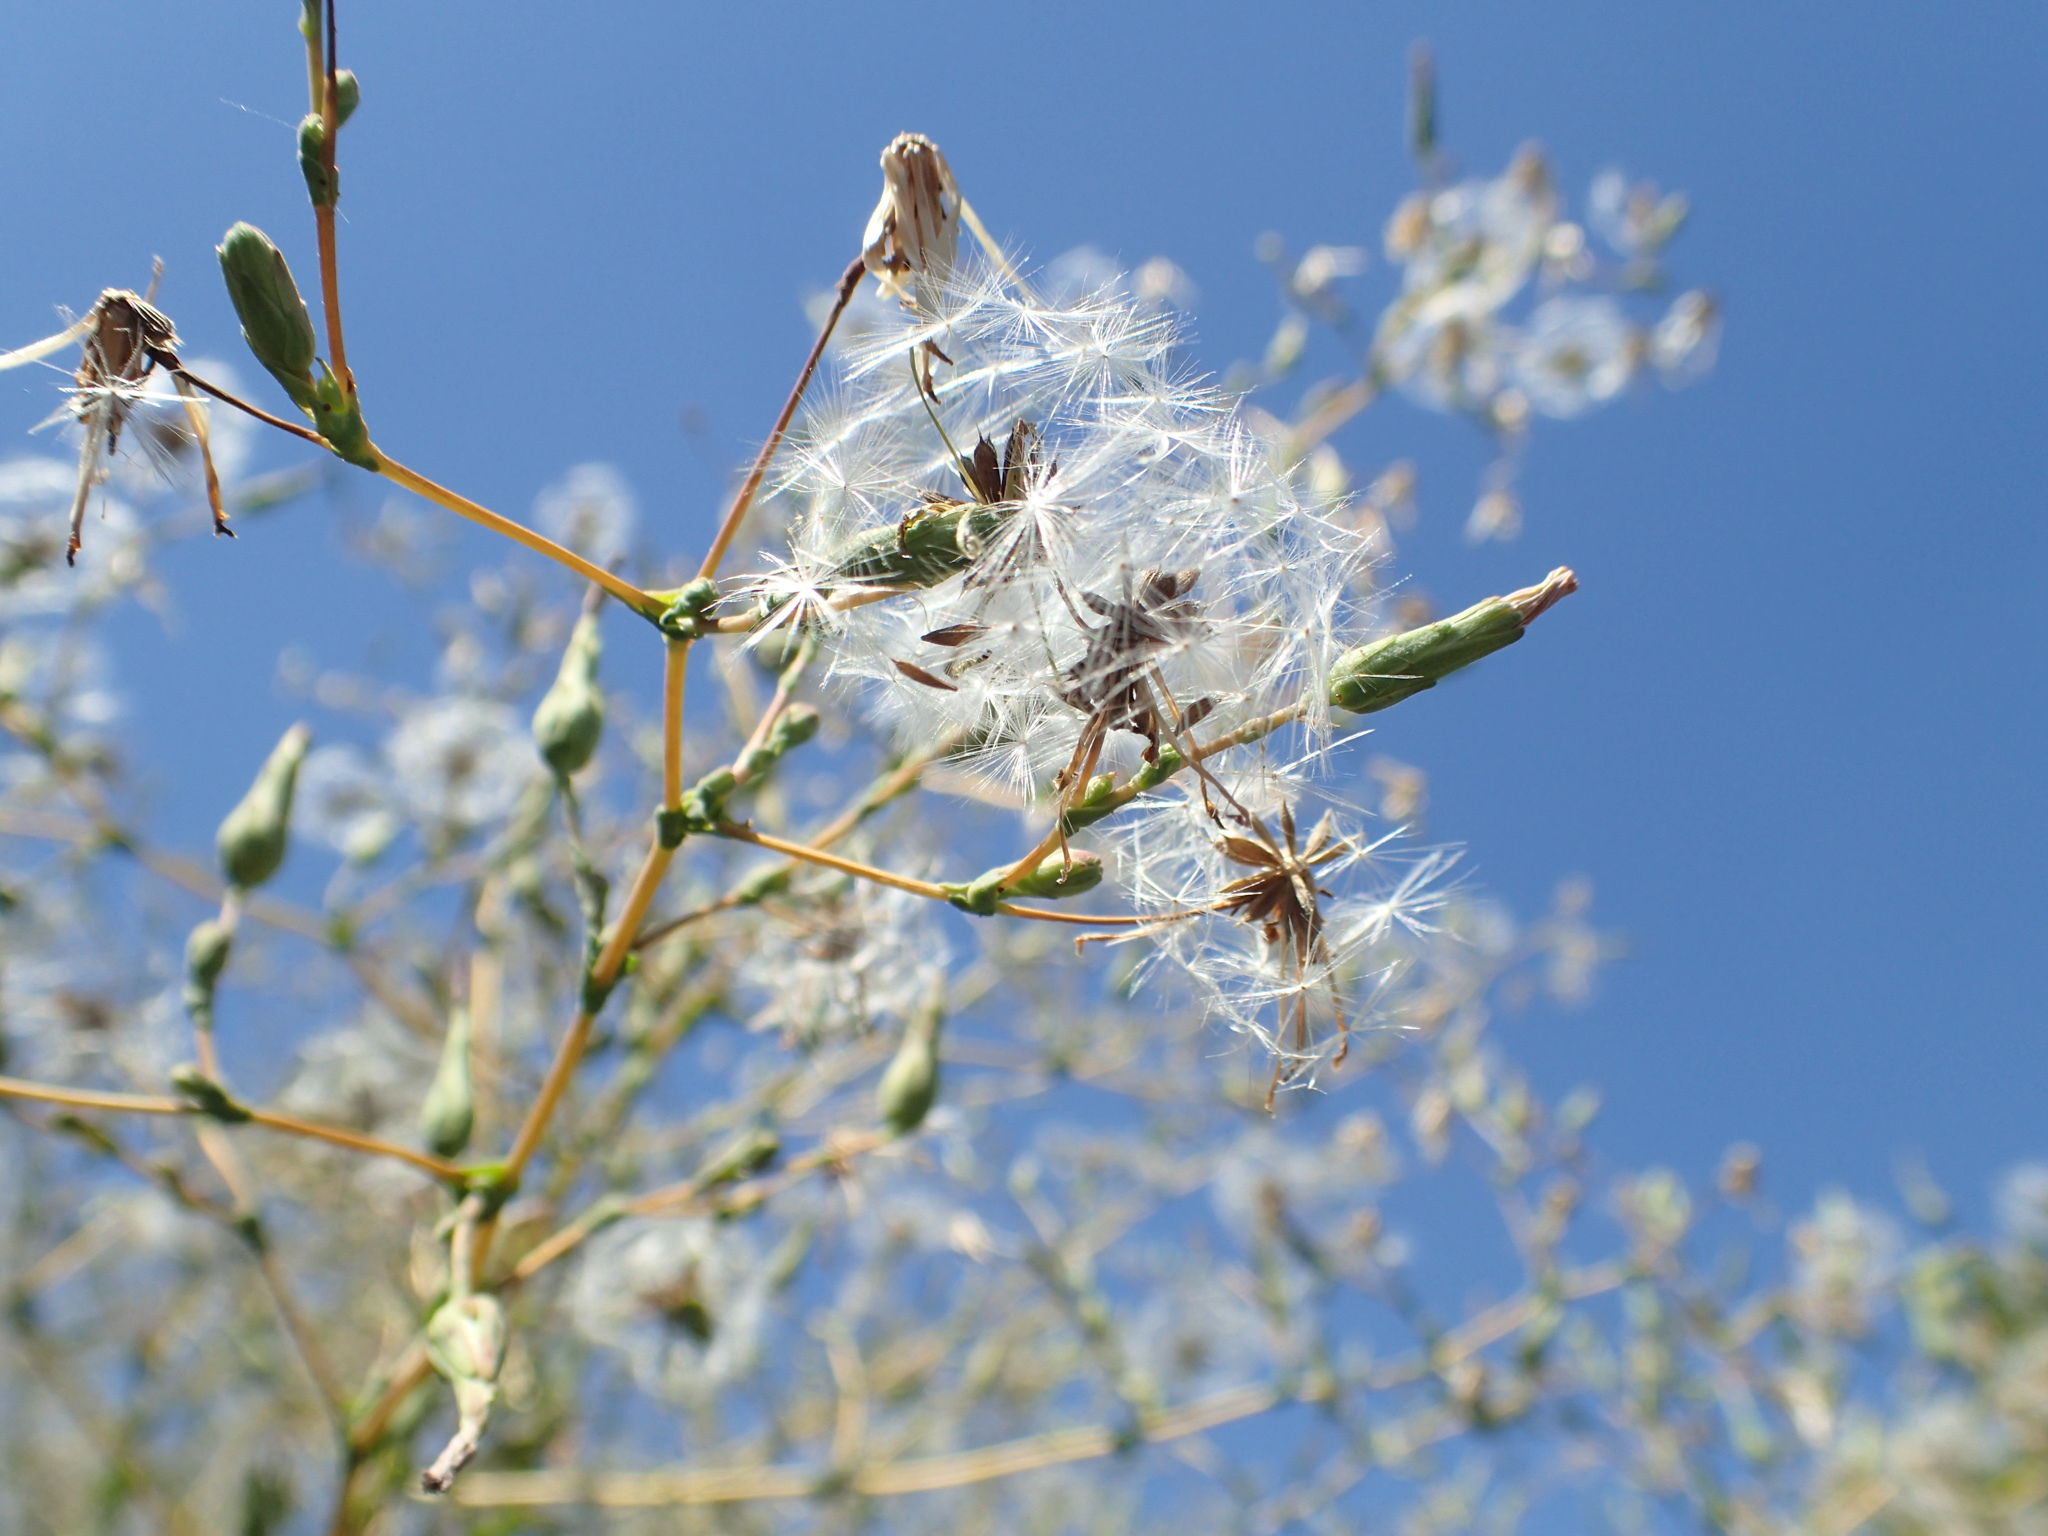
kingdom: Plantae
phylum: Tracheophyta
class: Magnoliopsida
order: Asterales
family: Asteraceae
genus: Lactuca
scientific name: Lactuca serriola
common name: Prickly lettuce
